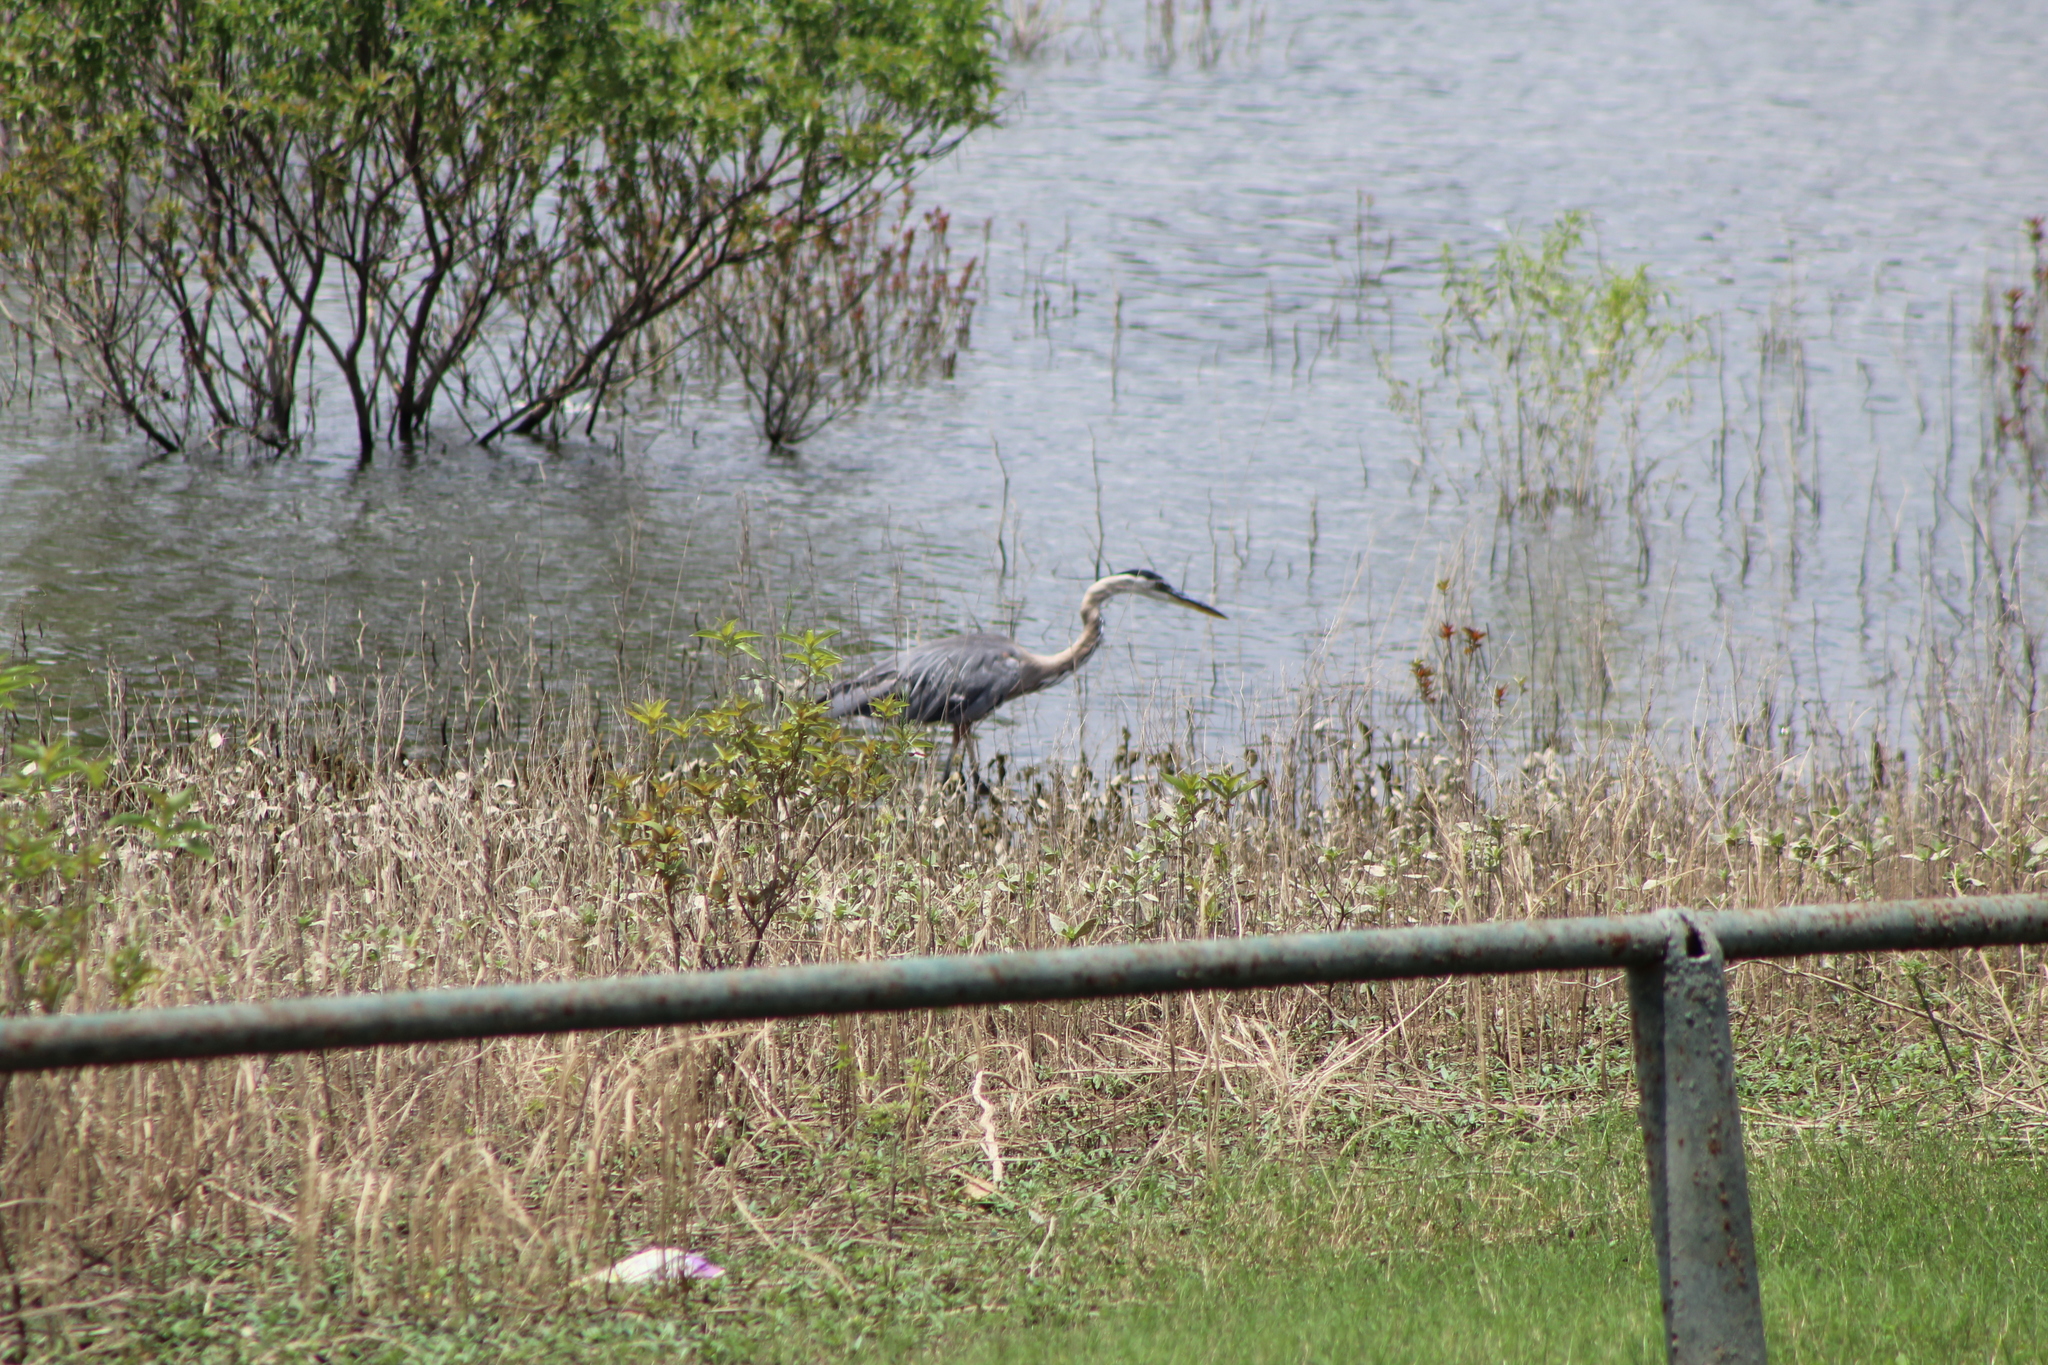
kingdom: Animalia
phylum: Chordata
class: Aves
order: Pelecaniformes
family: Ardeidae
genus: Ardea
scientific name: Ardea herodias
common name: Great blue heron
